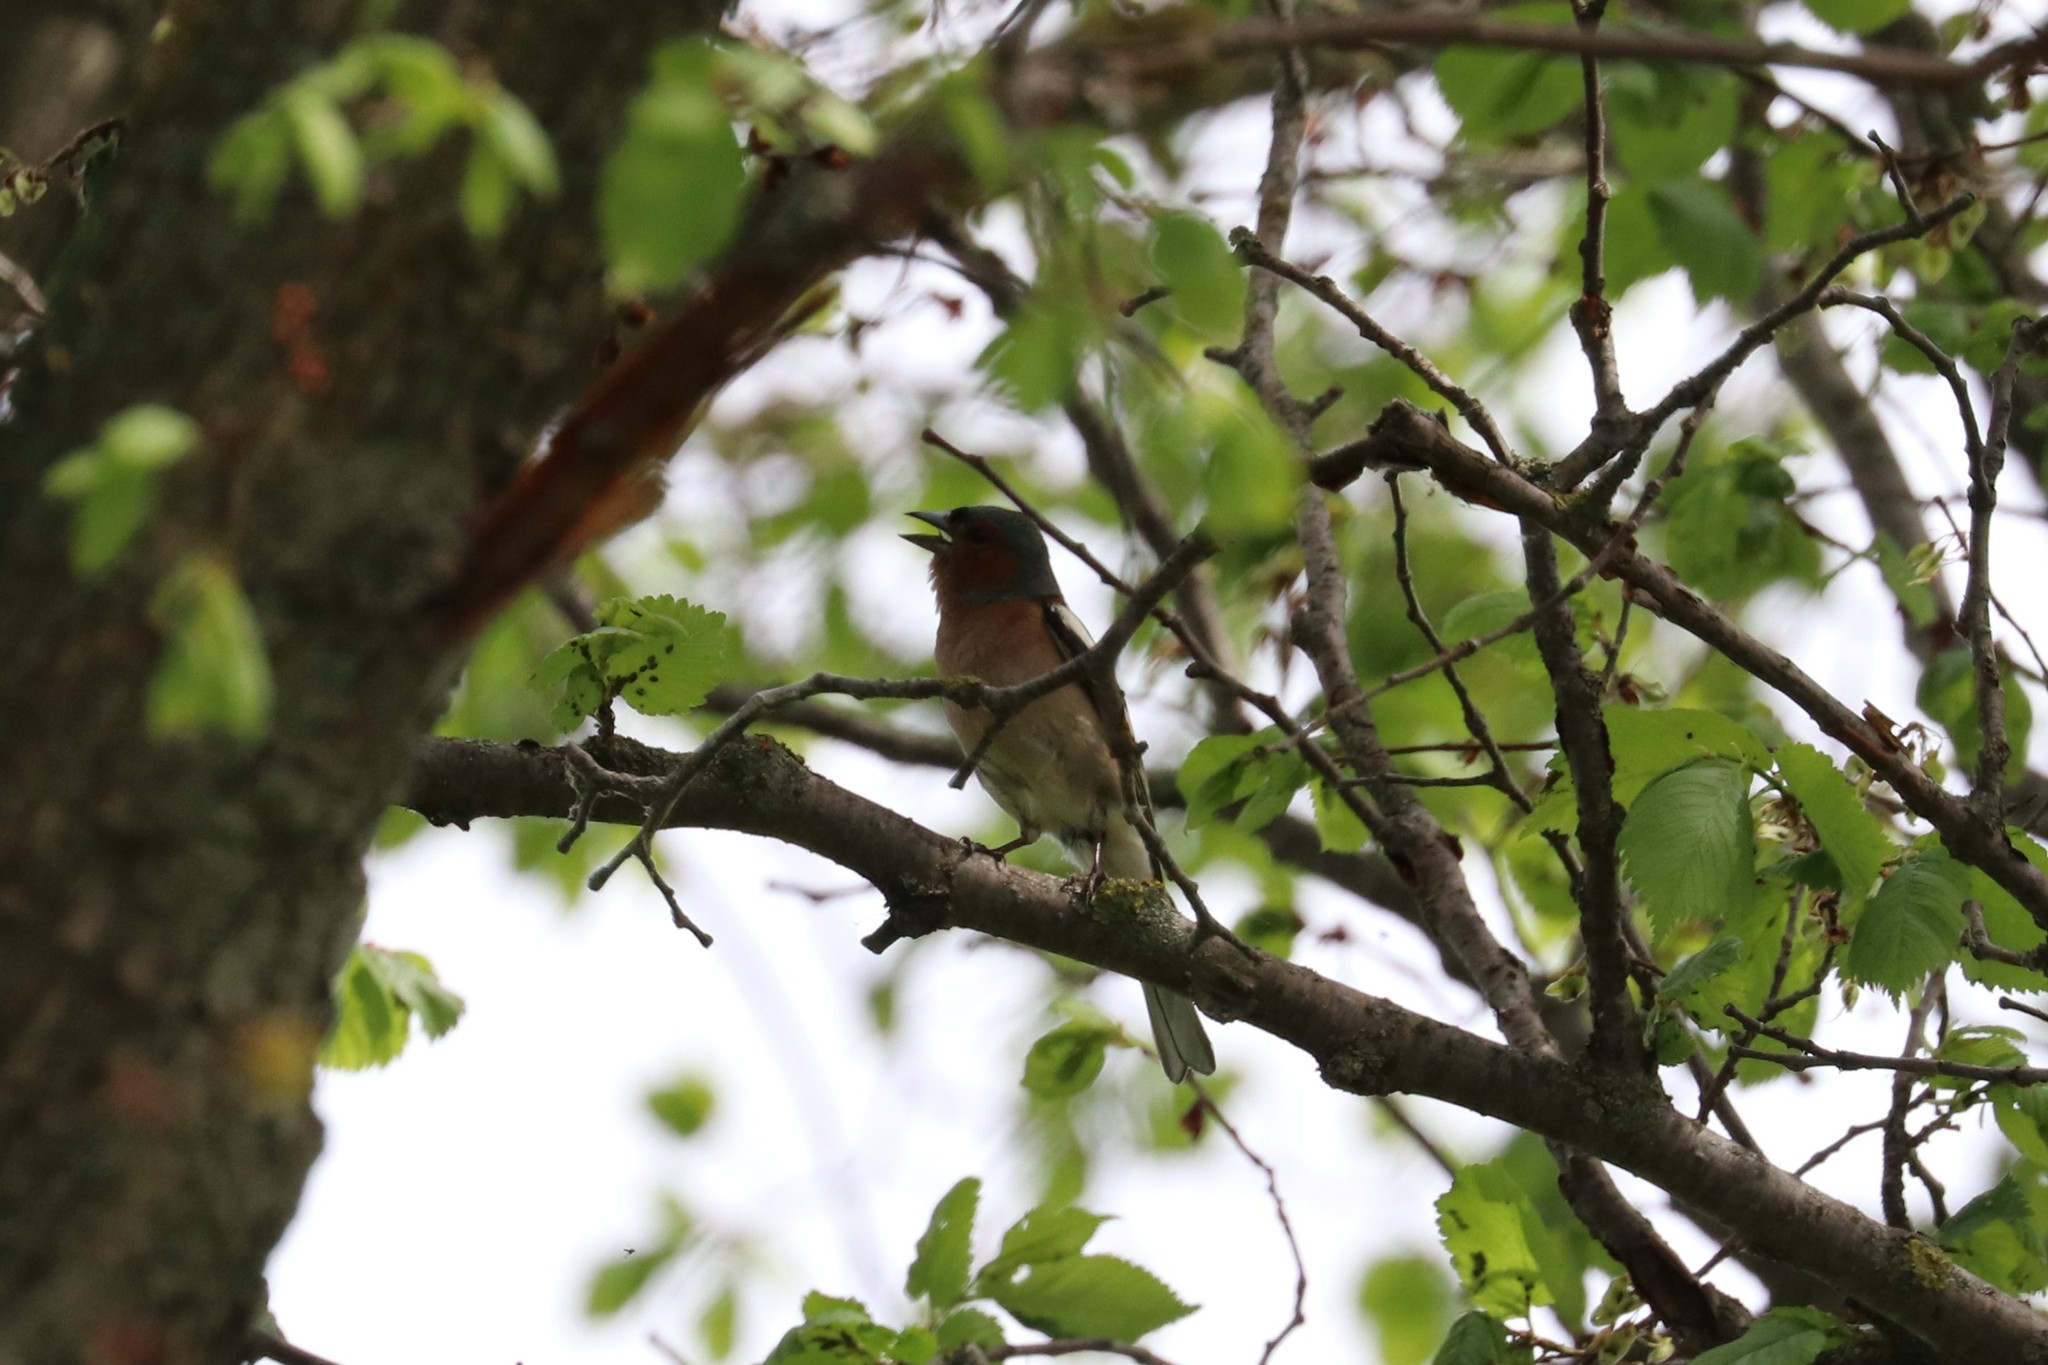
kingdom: Animalia
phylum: Chordata
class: Aves
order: Passeriformes
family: Fringillidae
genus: Fringilla
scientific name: Fringilla coelebs
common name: Common chaffinch
